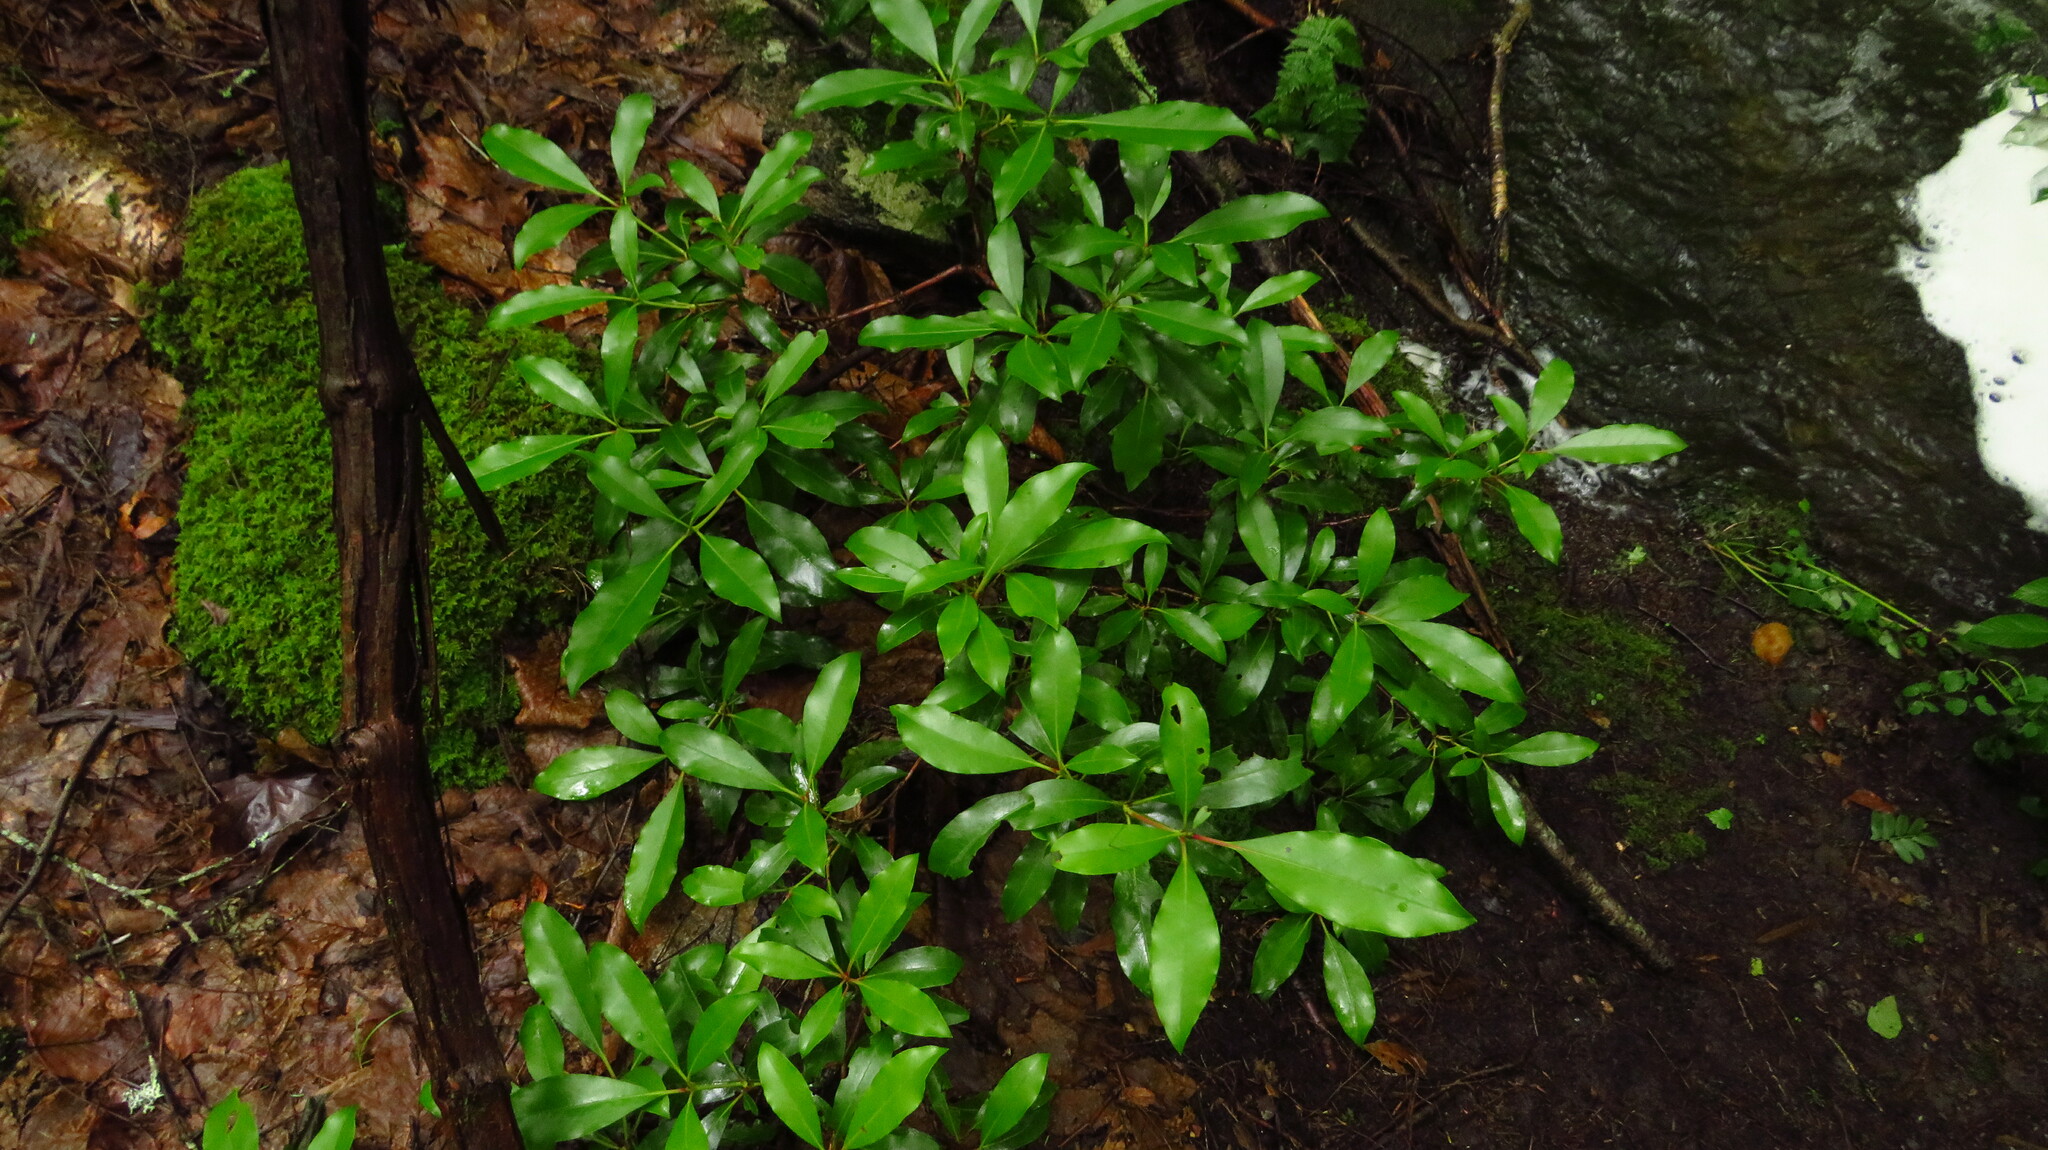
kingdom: Plantae
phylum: Tracheophyta
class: Magnoliopsida
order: Ericales
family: Ericaceae
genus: Kalmia
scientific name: Kalmia latifolia
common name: Mountain-laurel
